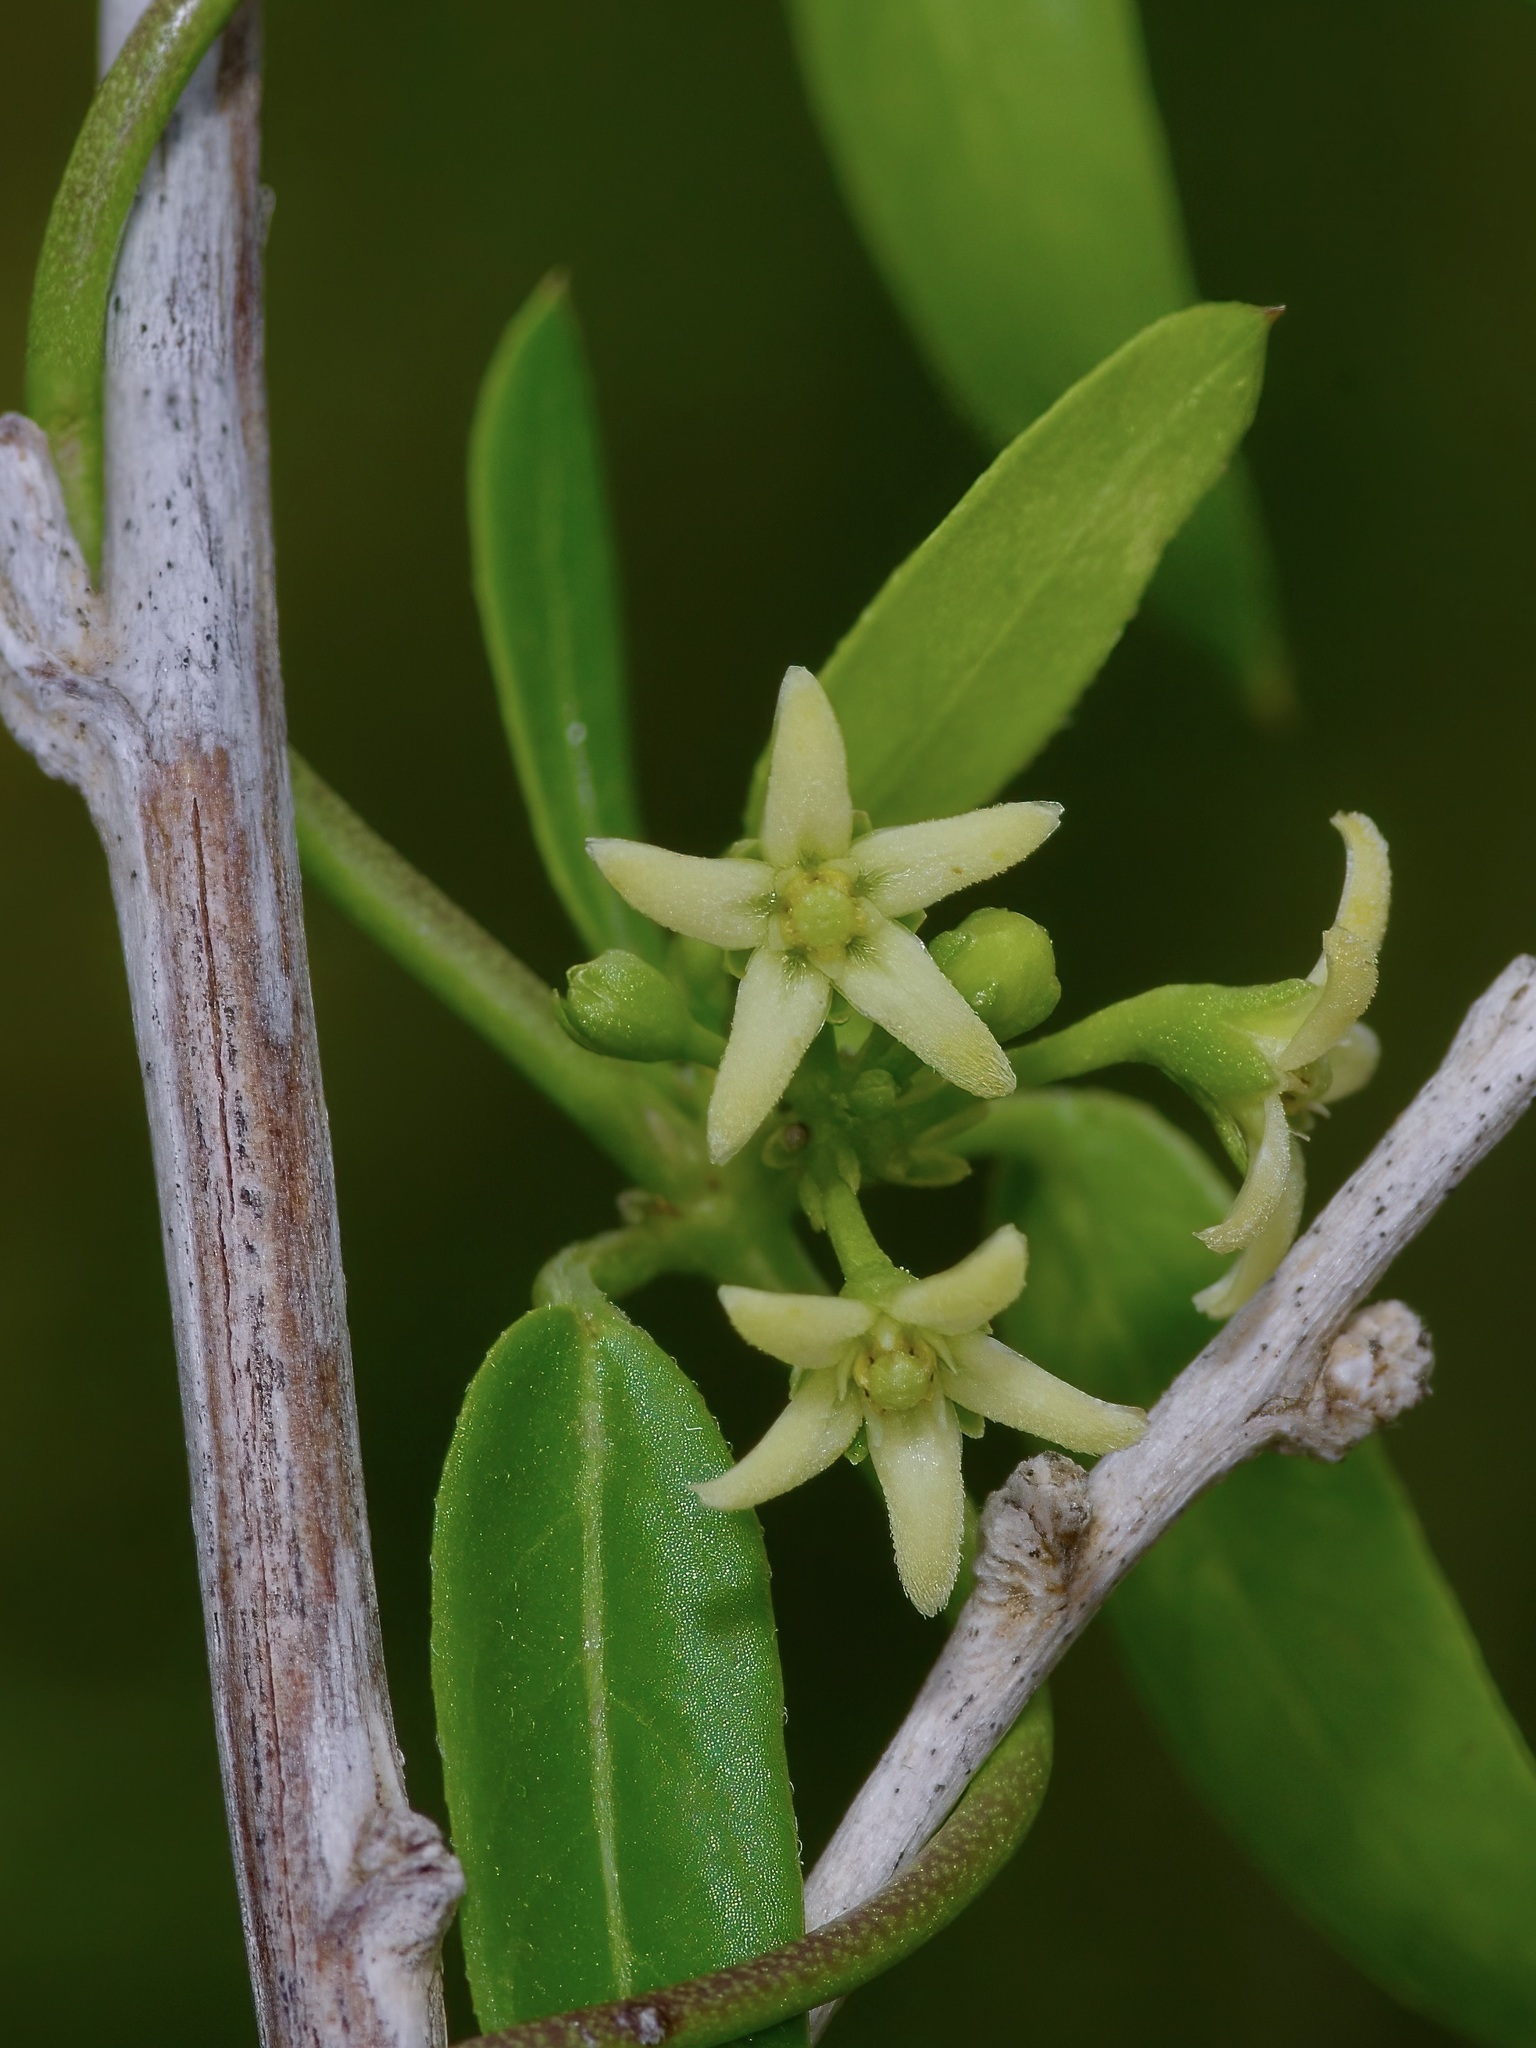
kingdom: Plantae
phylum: Tracheophyta
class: Magnoliopsida
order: Gentianales
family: Apocynaceae
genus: Metastelma
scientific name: Metastelma palmeri
